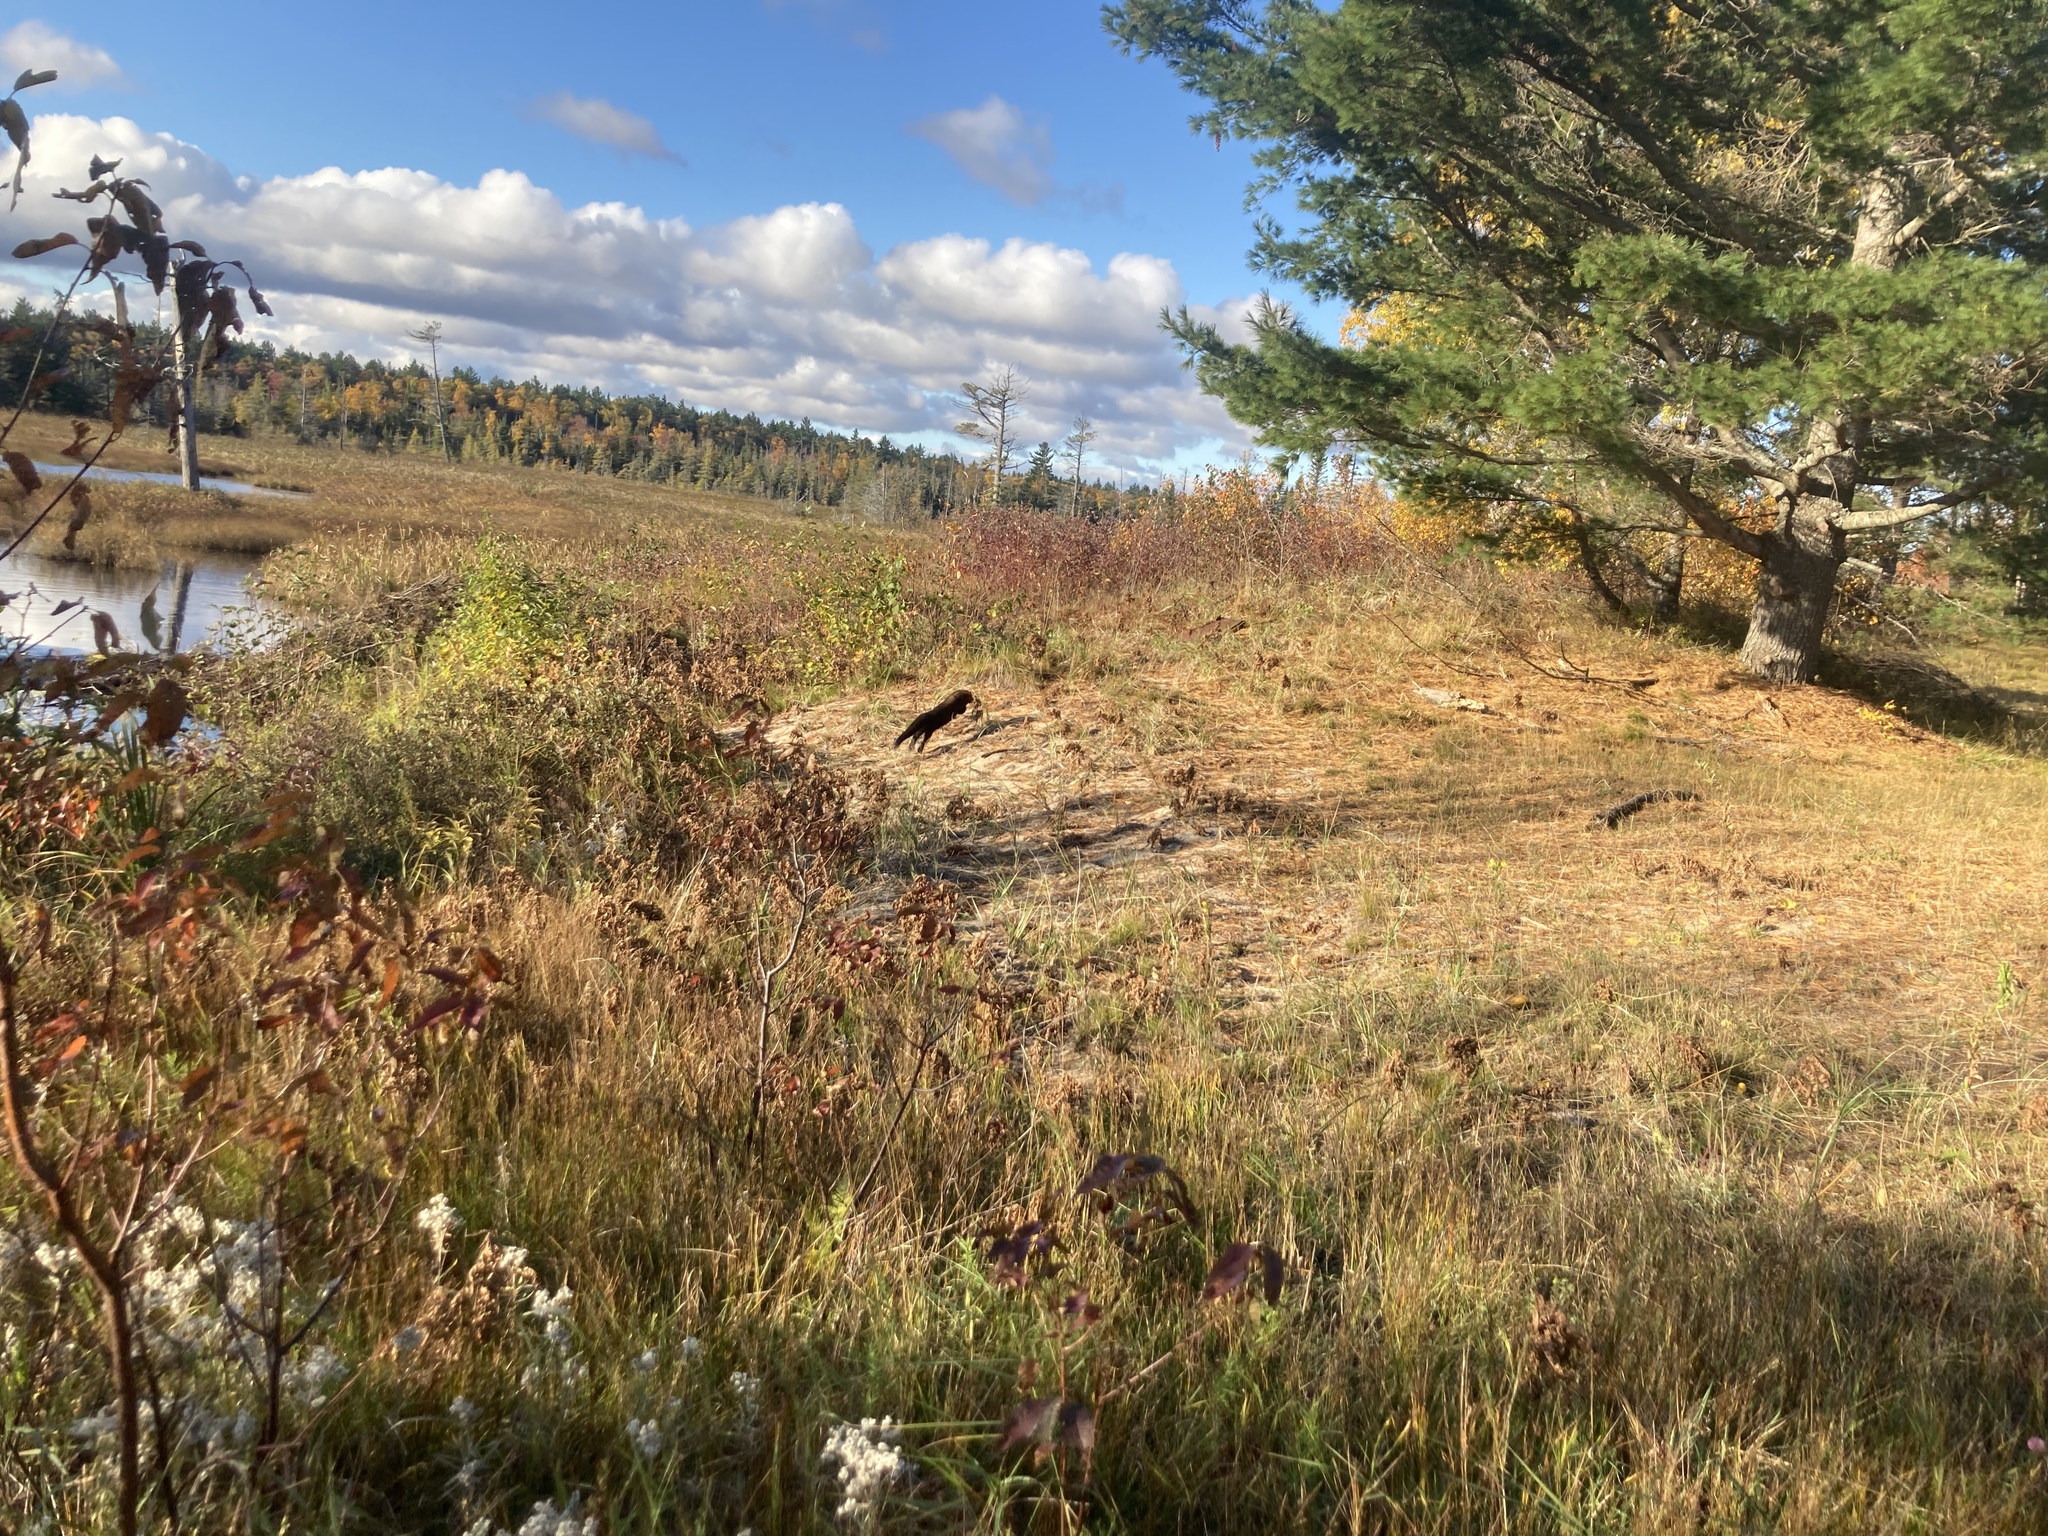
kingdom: Animalia
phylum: Chordata
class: Mammalia
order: Carnivora
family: Mustelidae
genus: Pekania
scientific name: Pekania pennanti
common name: Fisher
